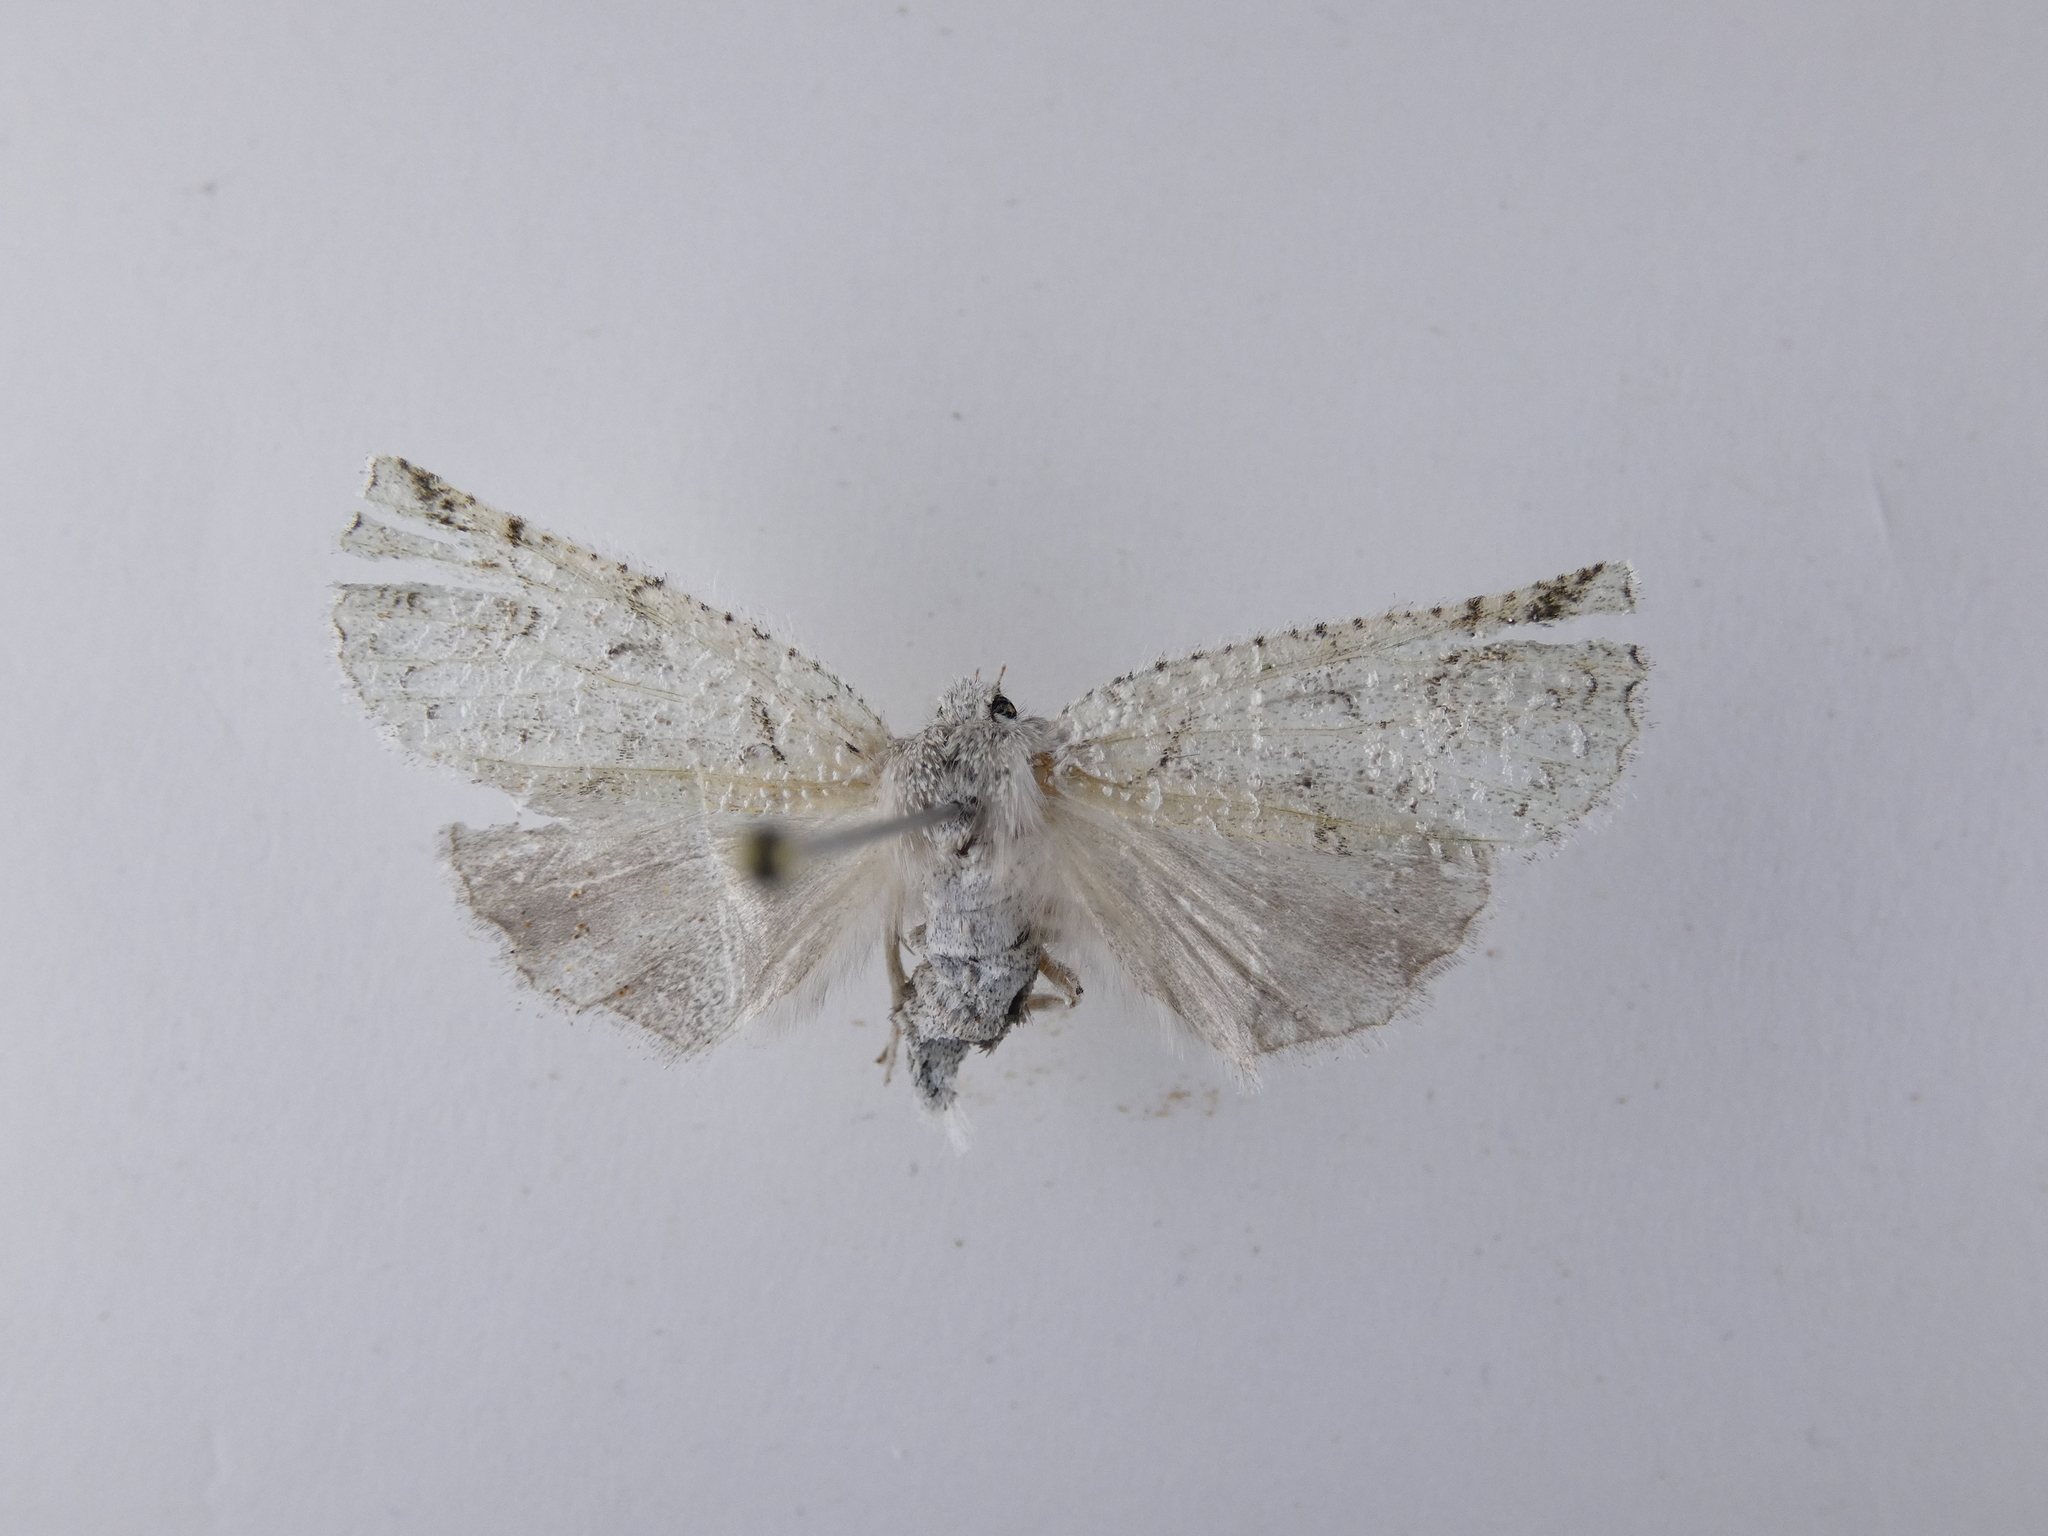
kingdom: Animalia
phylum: Arthropoda
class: Insecta
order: Lepidoptera
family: Geometridae
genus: Declana
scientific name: Declana floccosa
